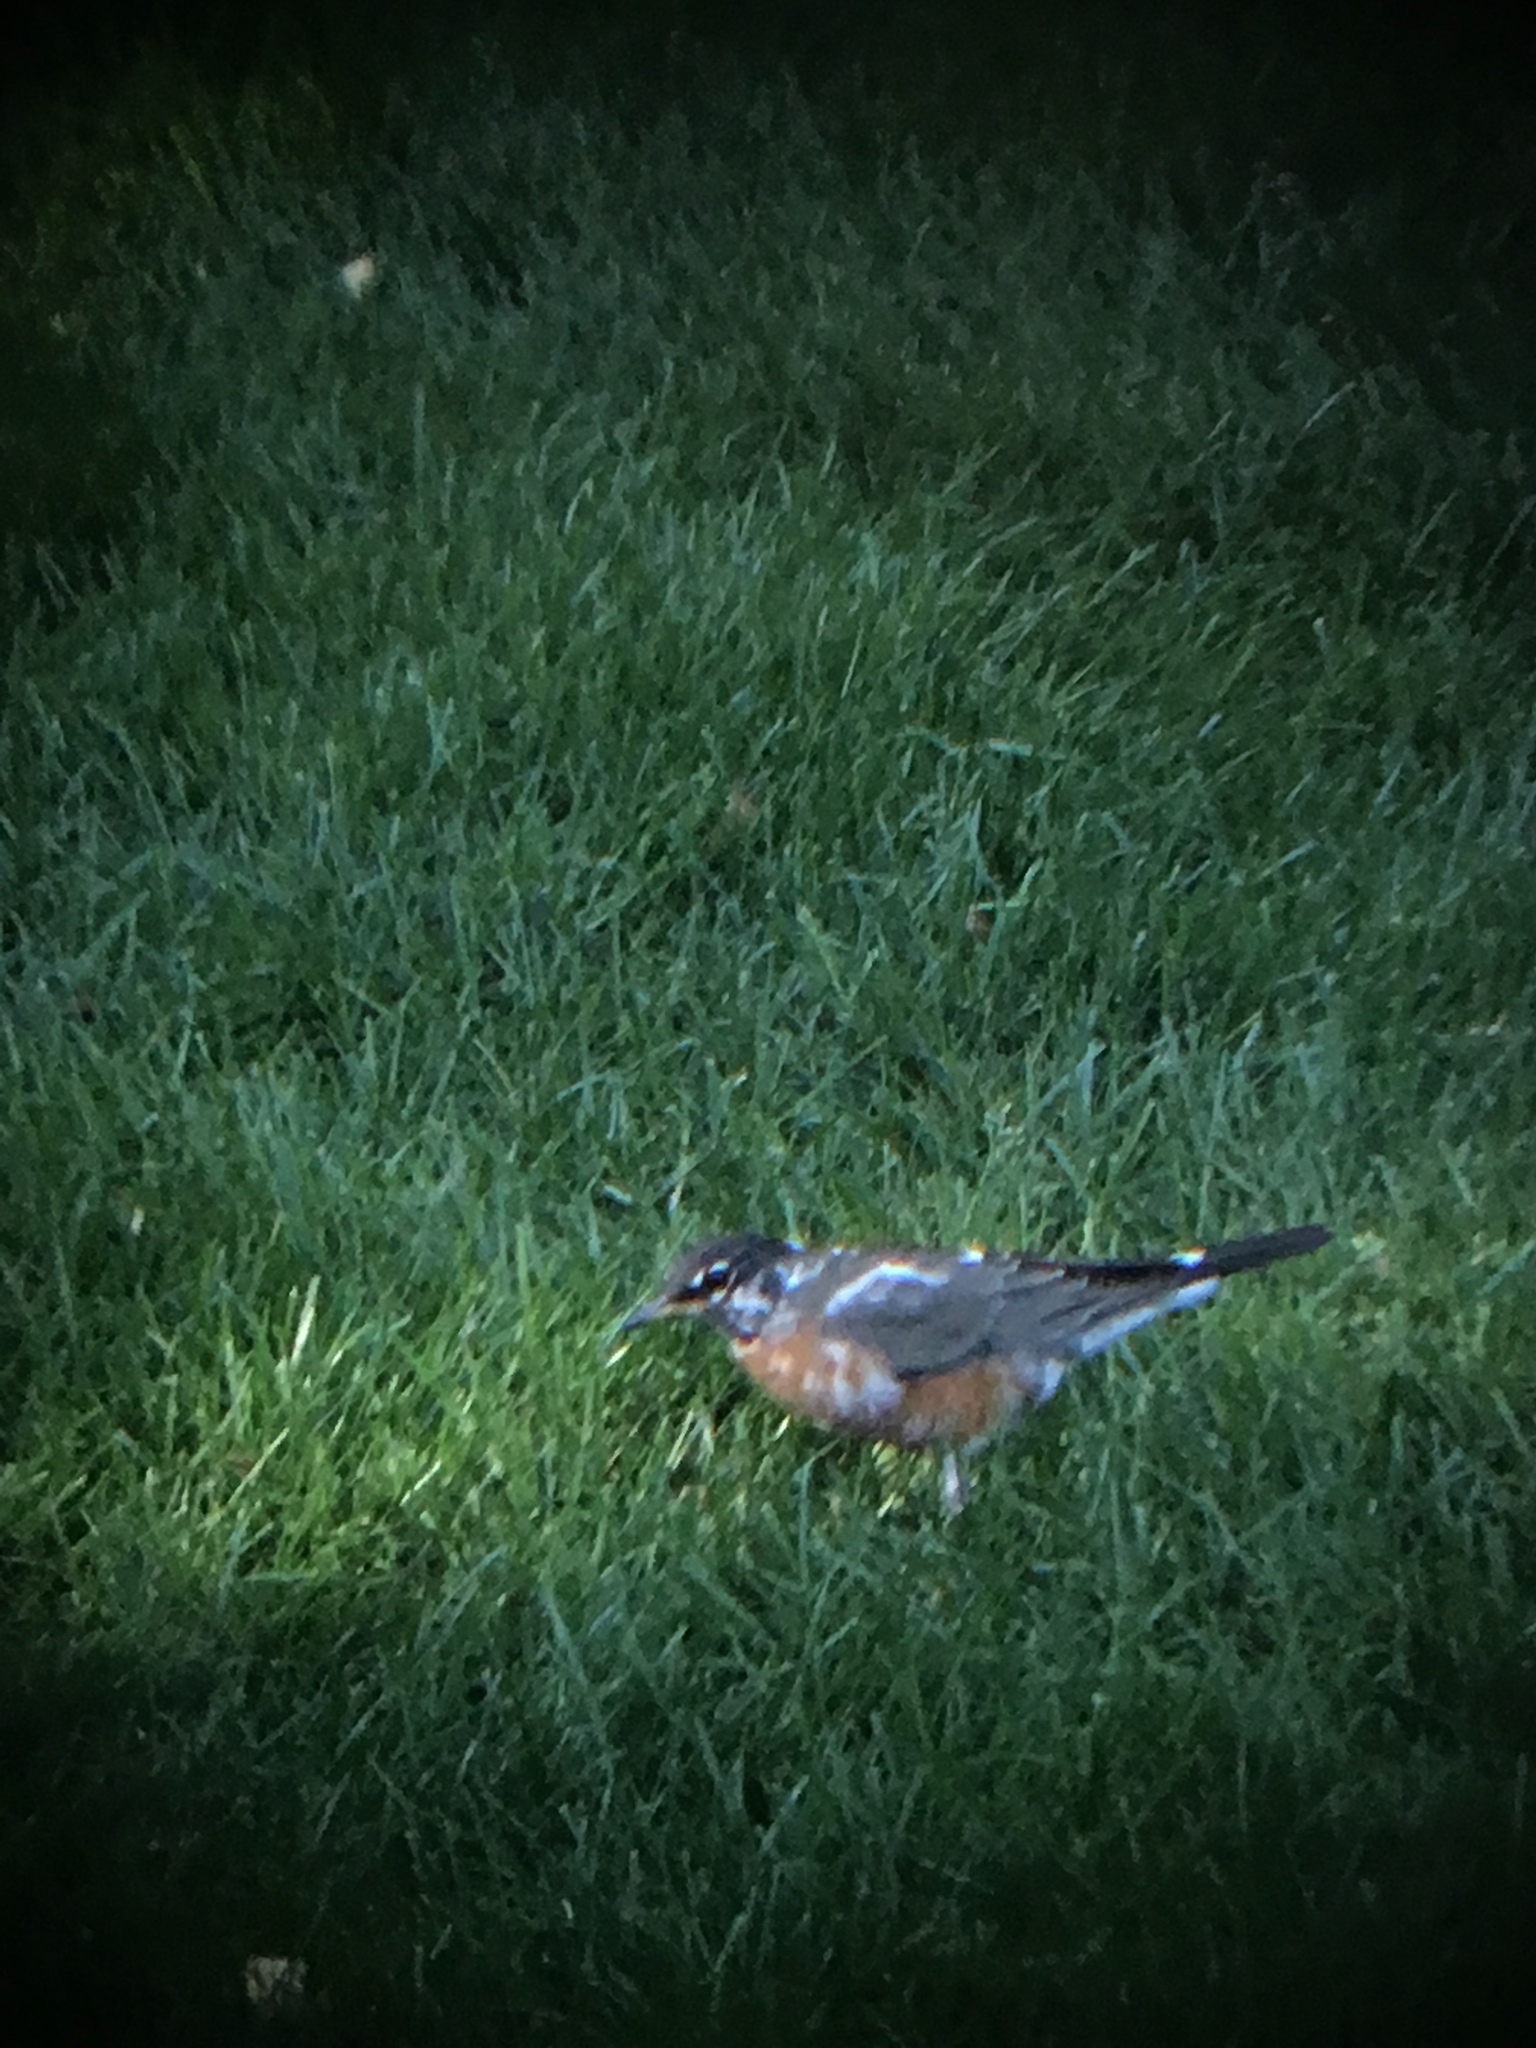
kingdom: Animalia
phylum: Chordata
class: Aves
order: Passeriformes
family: Turdidae
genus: Turdus
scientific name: Turdus migratorius
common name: American robin
